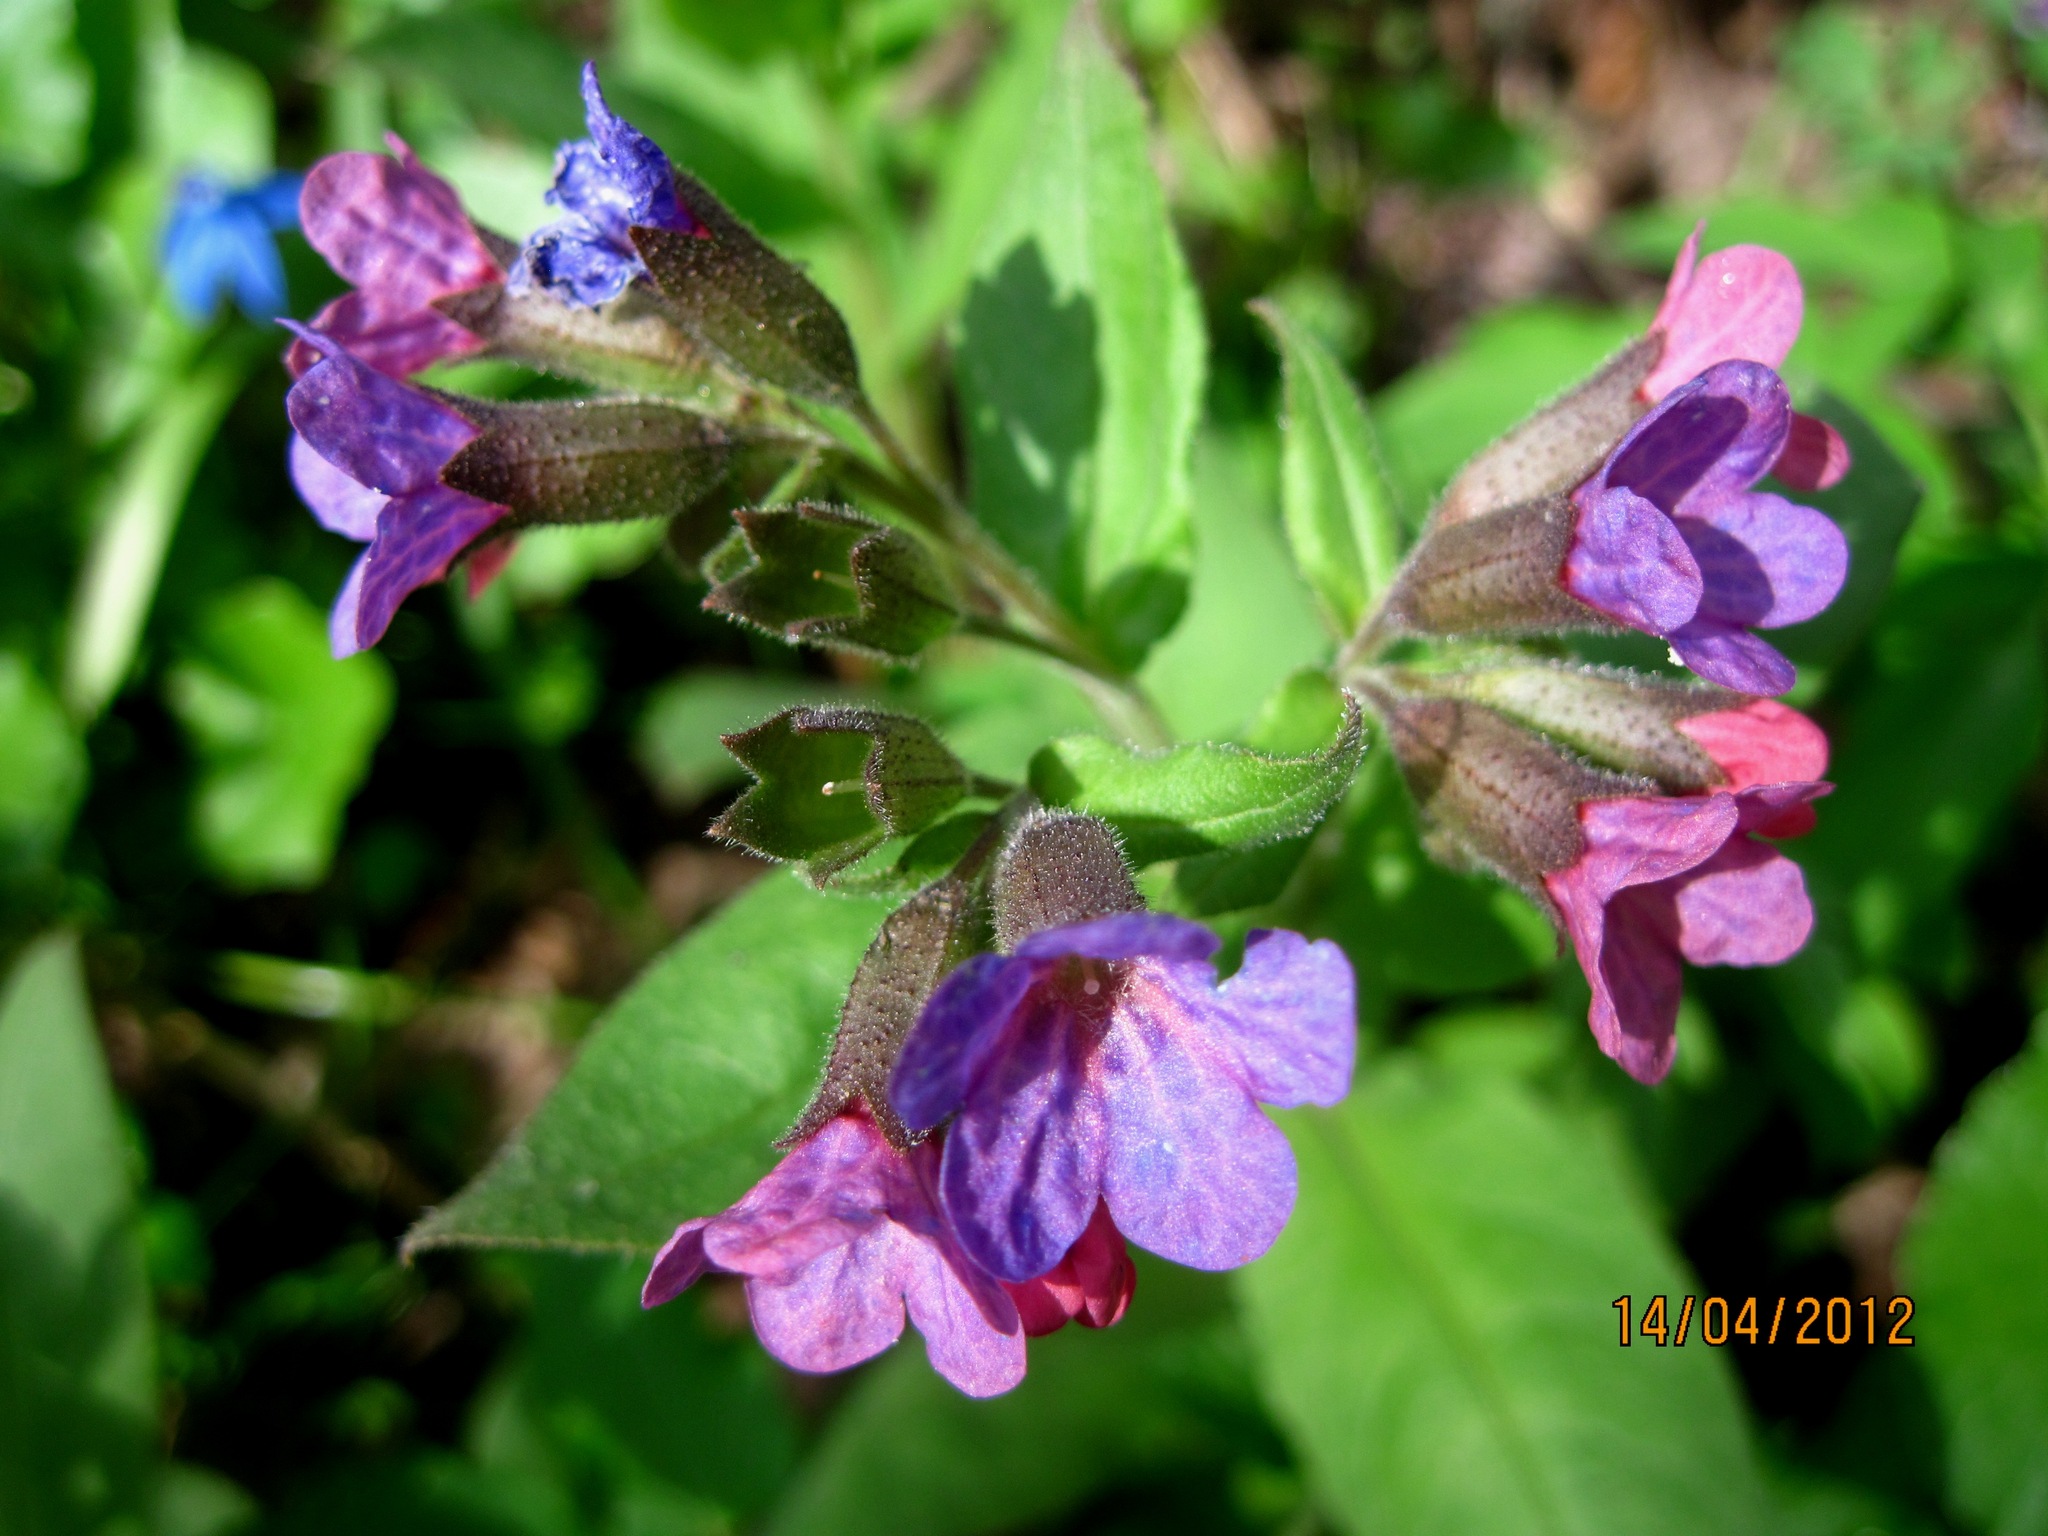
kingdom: Plantae
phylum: Tracheophyta
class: Magnoliopsida
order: Boraginales
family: Boraginaceae
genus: Pulmonaria
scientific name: Pulmonaria obscura
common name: Suffolk lungwort
